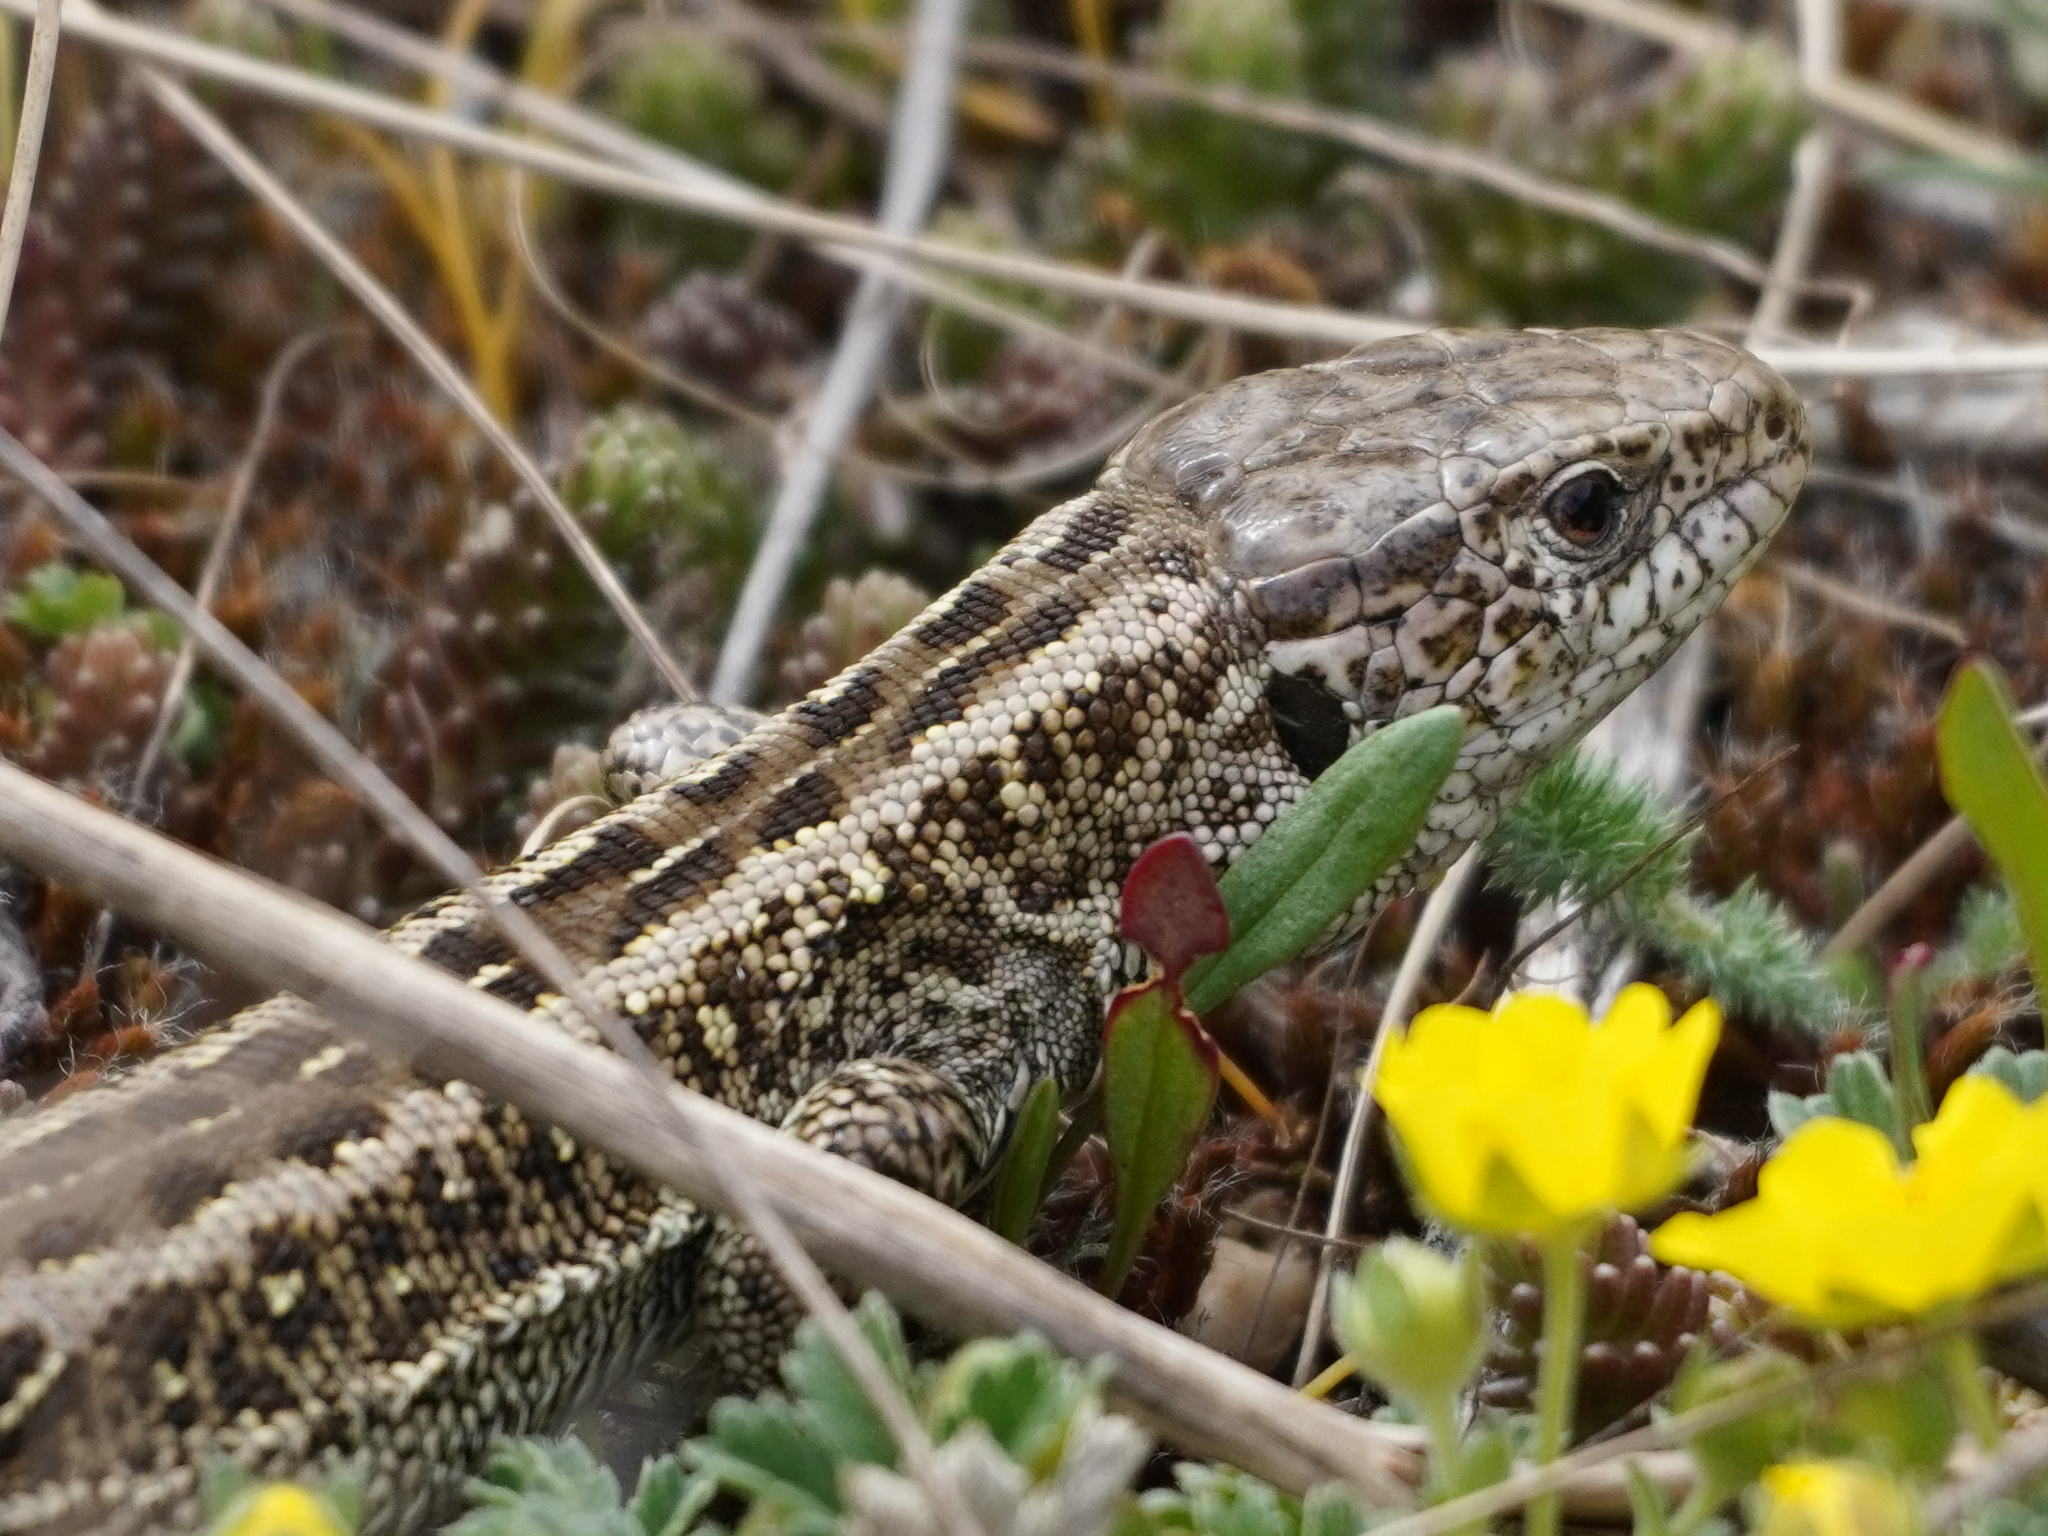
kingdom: Animalia
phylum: Chordata
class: Squamata
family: Lacertidae
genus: Lacerta
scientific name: Lacerta agilis
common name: Sand lizard
